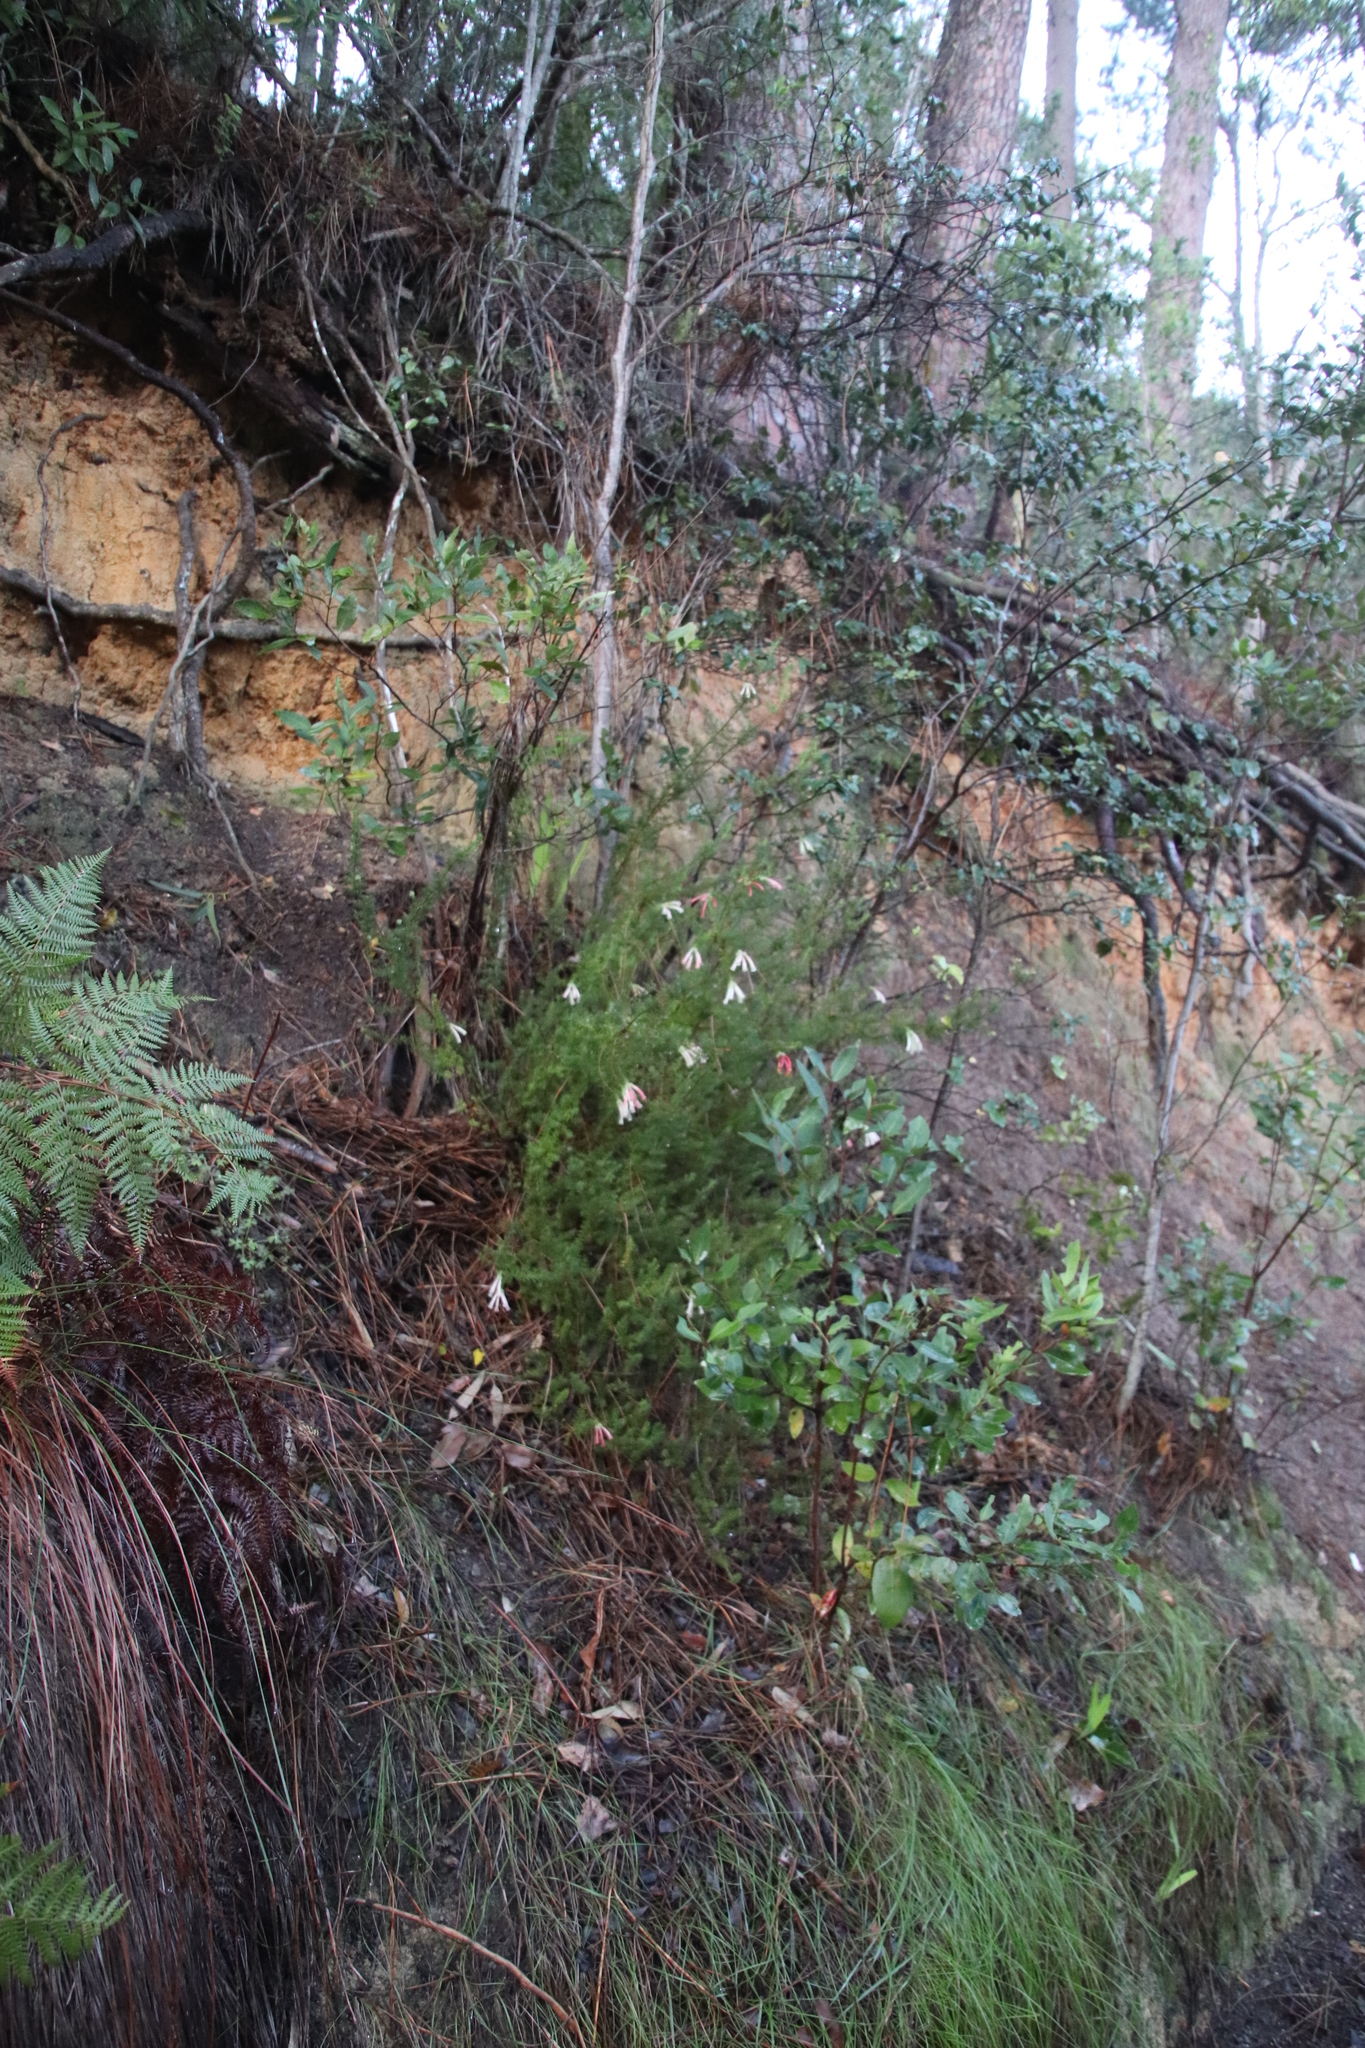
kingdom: Plantae
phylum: Tracheophyta
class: Magnoliopsida
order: Ericales
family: Ericaceae
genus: Erica
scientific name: Erica glandulosa
